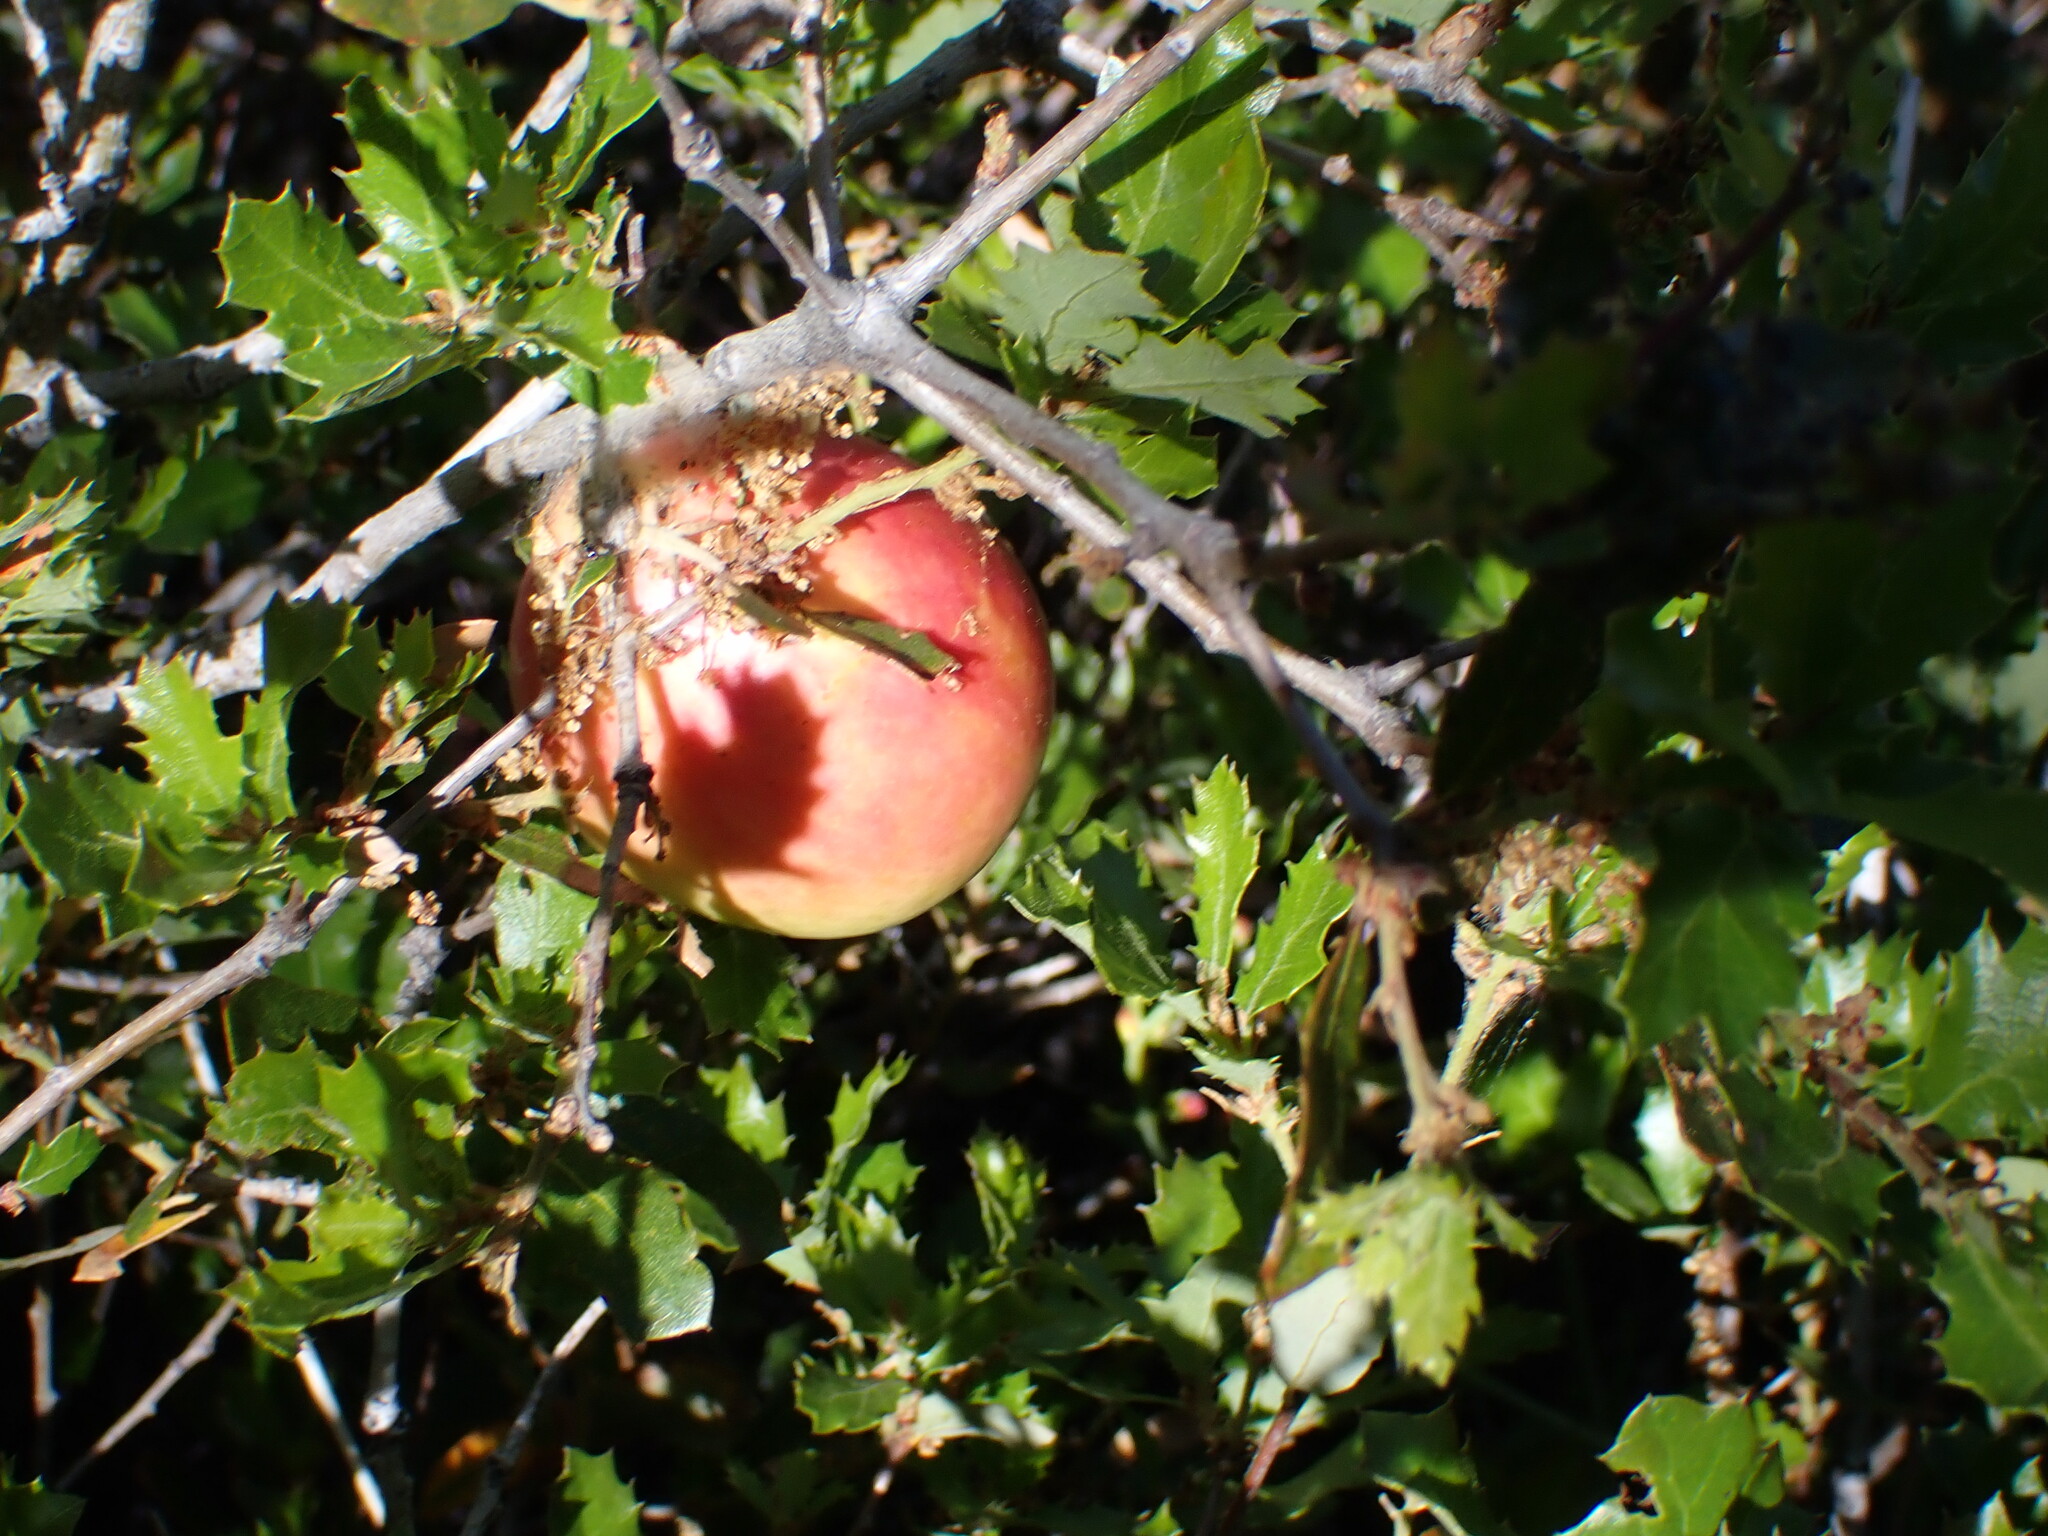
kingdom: Animalia
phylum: Arthropoda
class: Insecta
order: Hymenoptera
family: Cynipidae
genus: Andricus
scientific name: Andricus quercuscalifornicus
